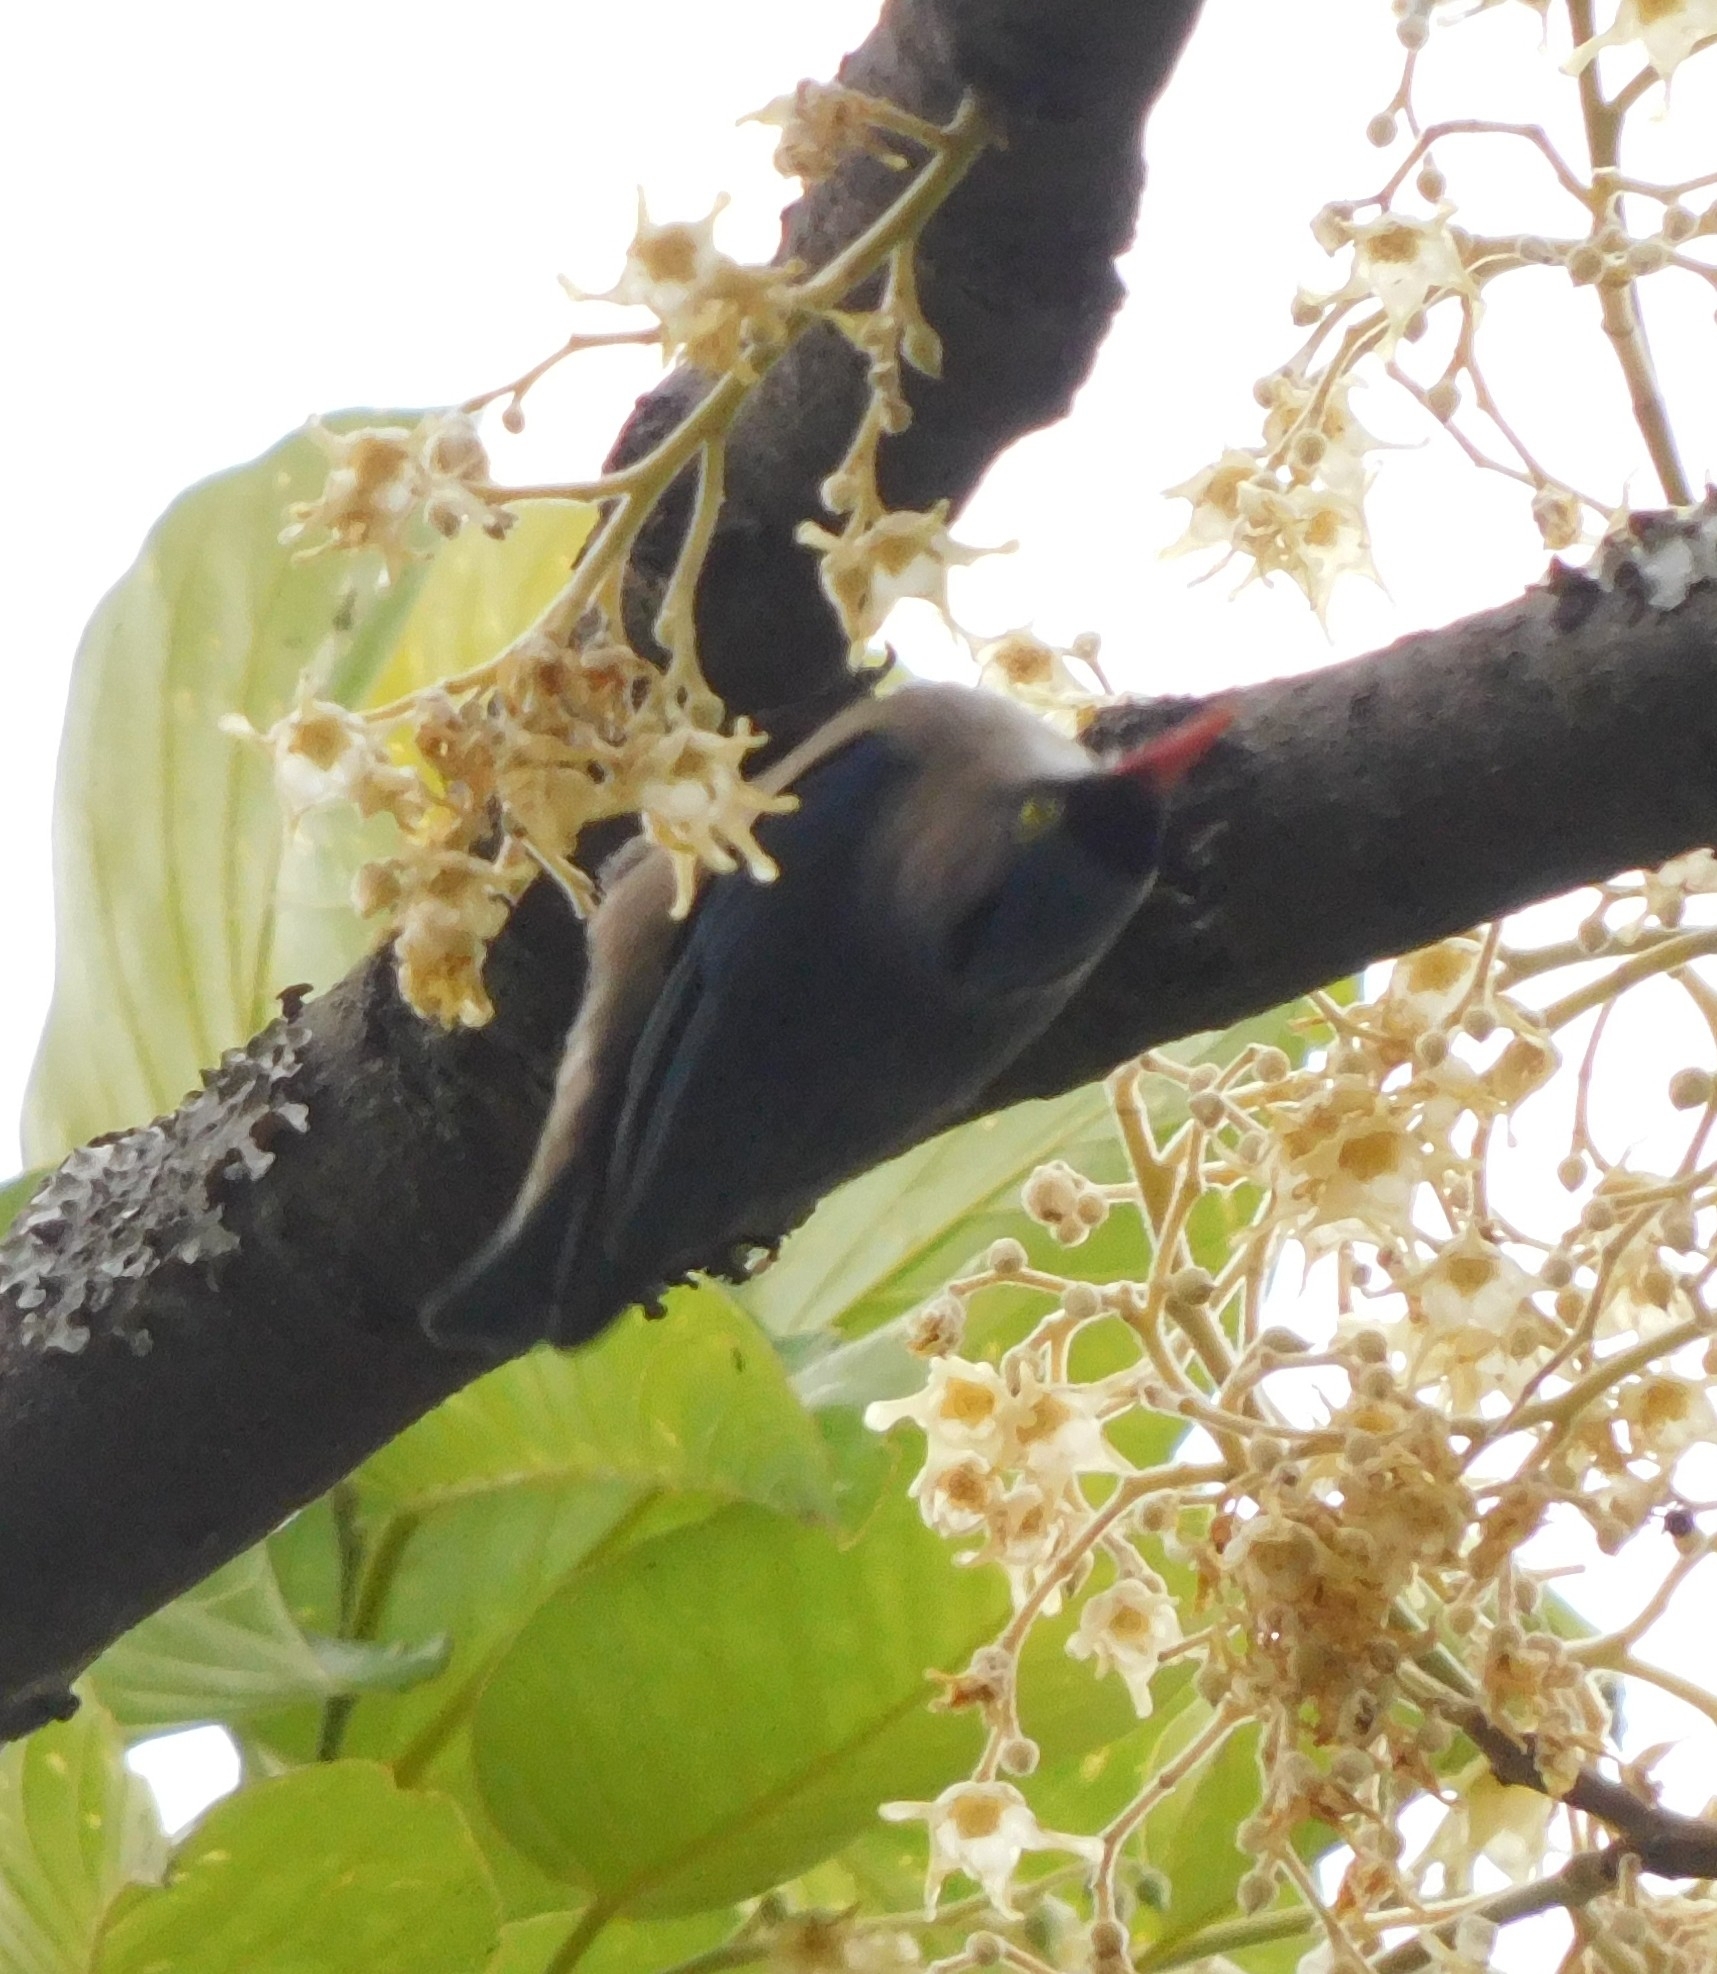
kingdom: Animalia
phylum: Chordata
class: Aves
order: Passeriformes
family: Sittidae
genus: Sitta
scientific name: Sitta frontalis
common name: Velvet-fronted nuthatch
